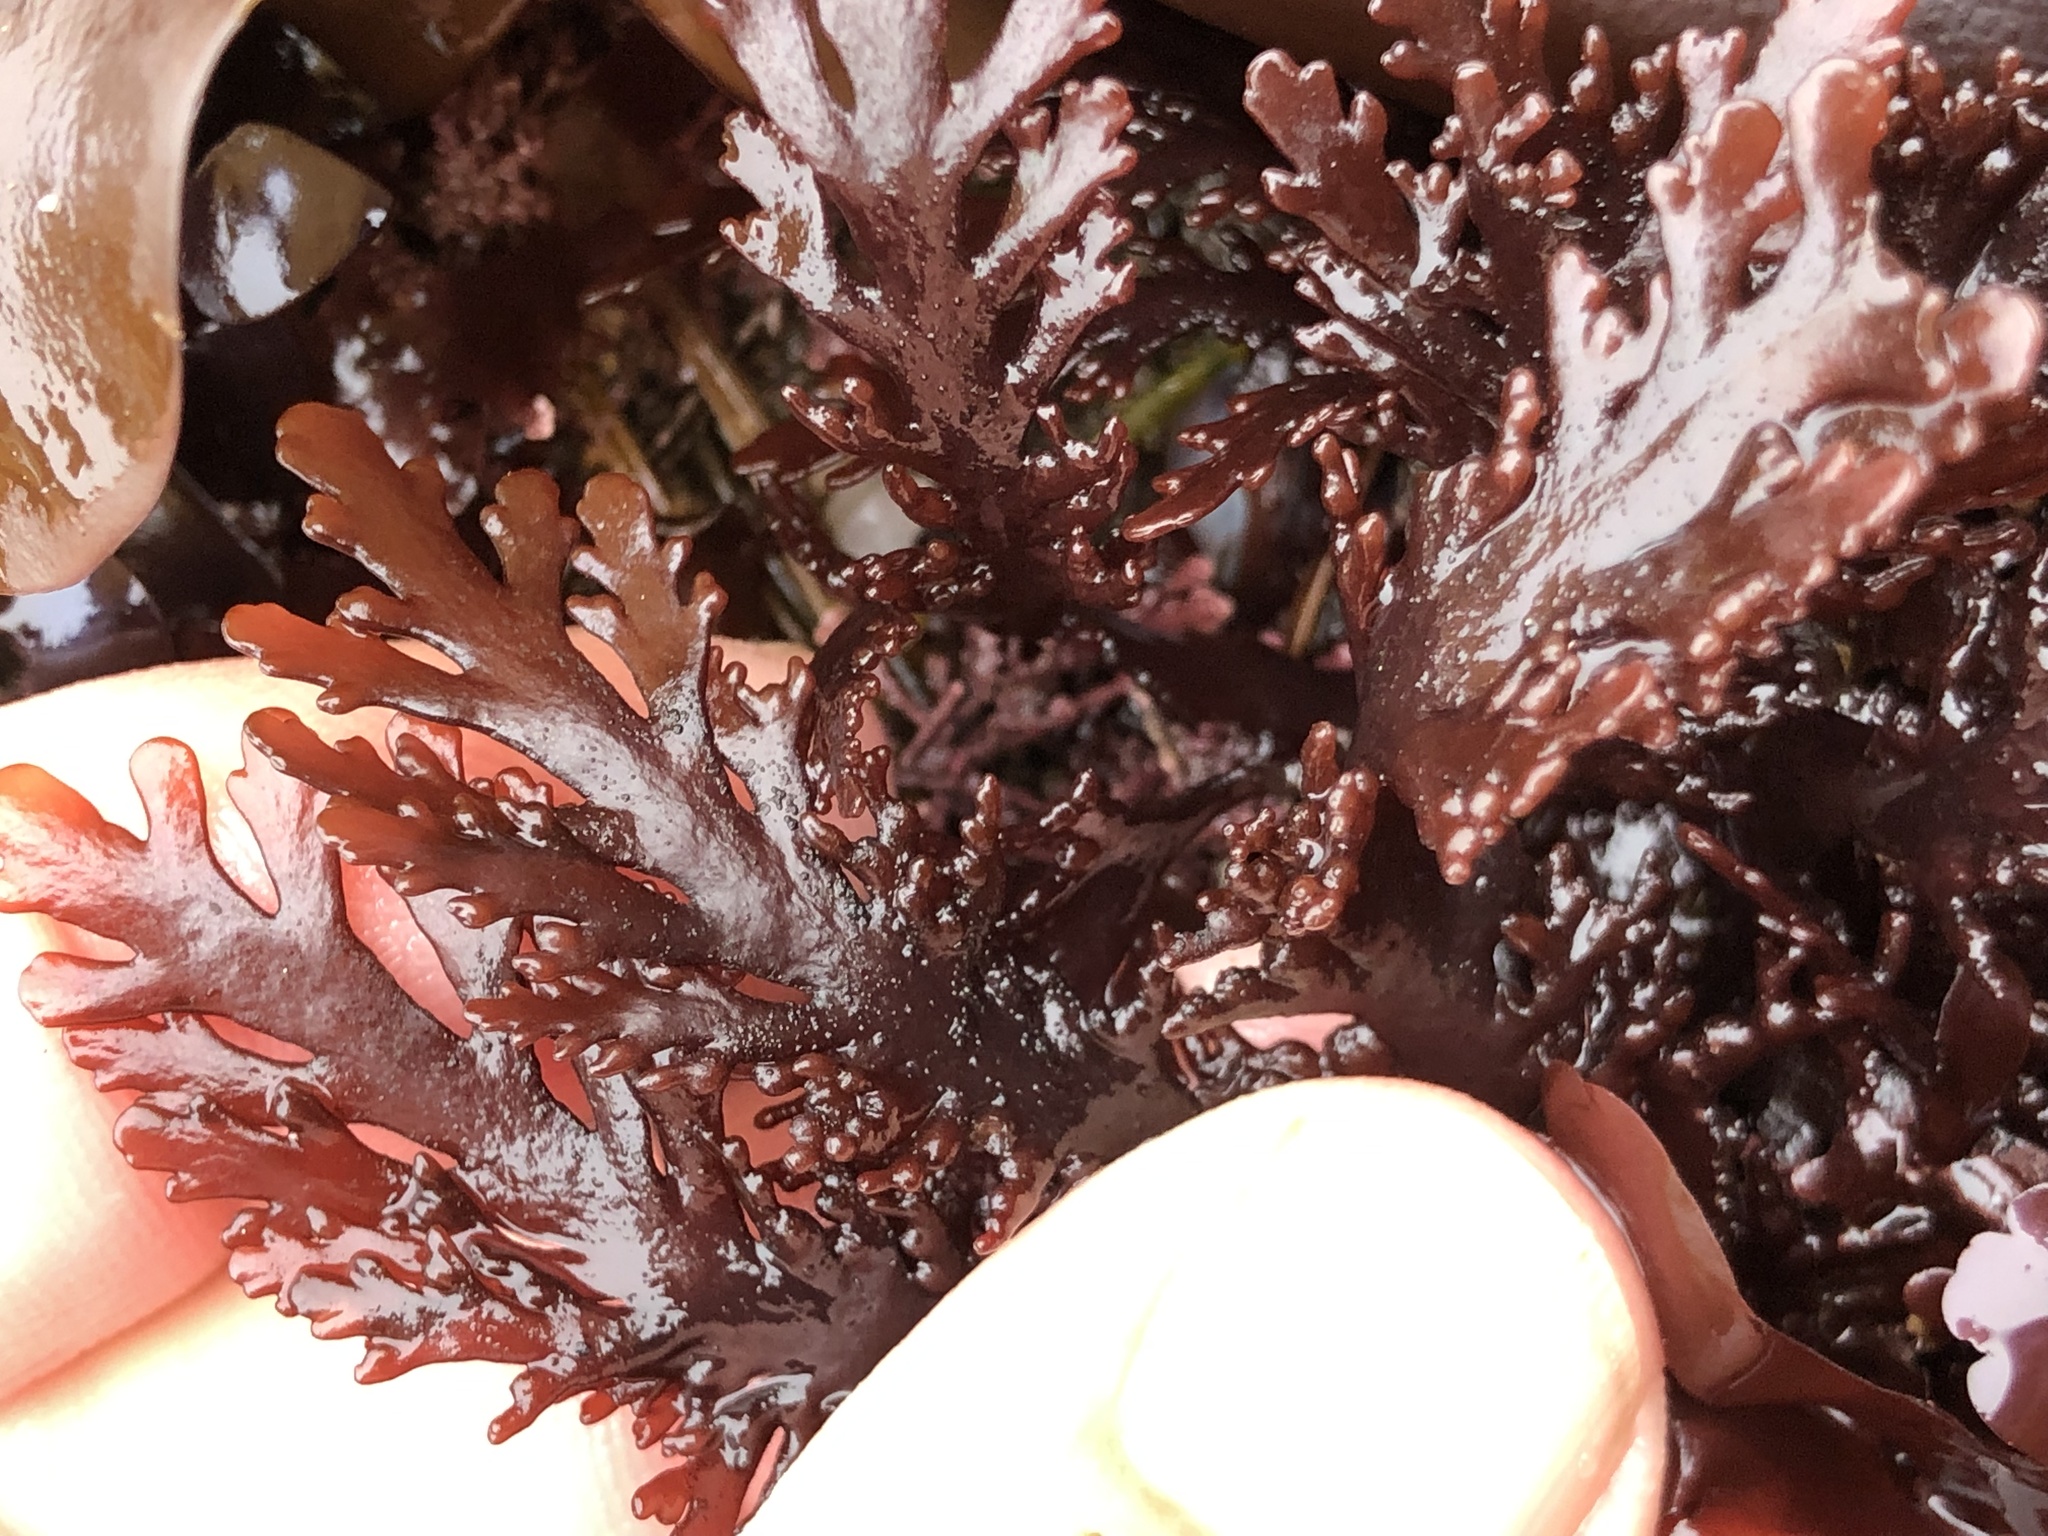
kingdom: Plantae
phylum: Rhodophyta
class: Florideophyceae
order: Ceramiales
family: Rhodomelaceae
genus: Osmundea
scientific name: Osmundea spectabilis
